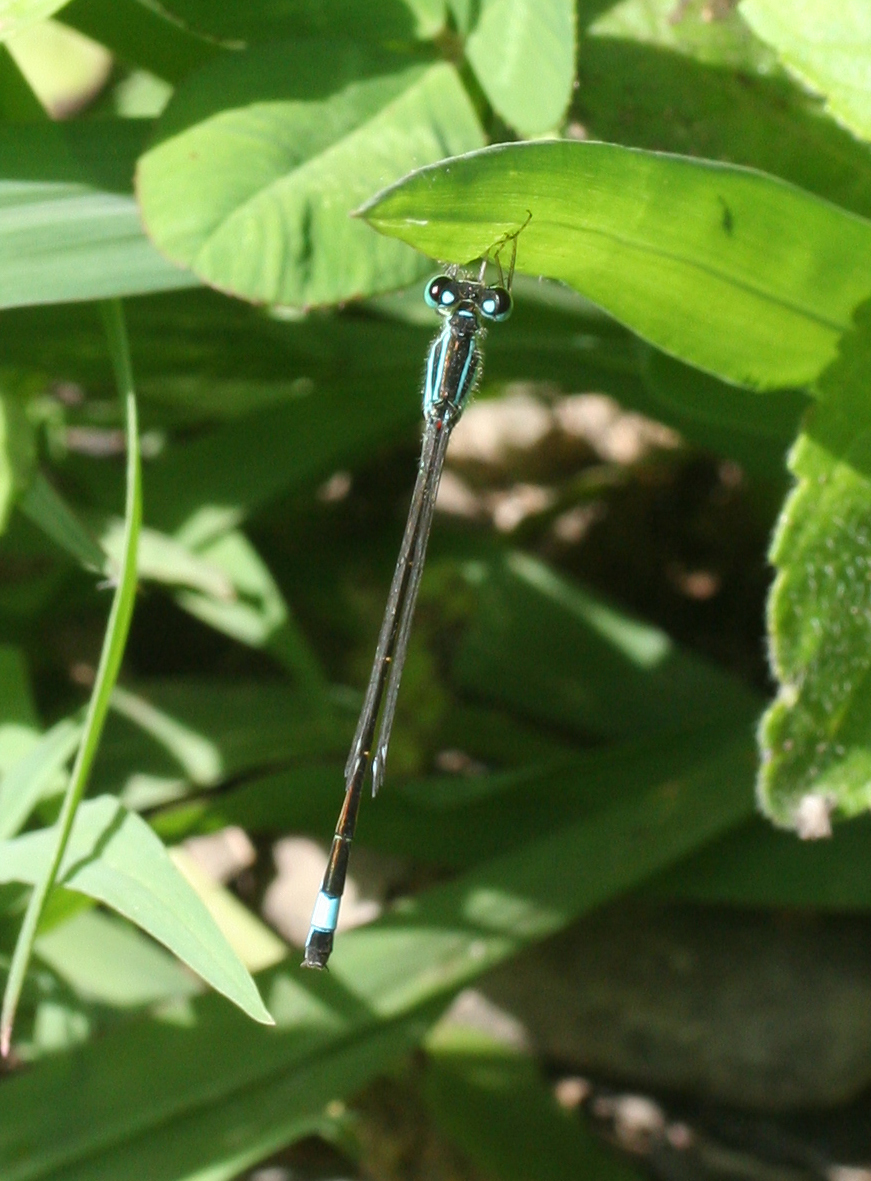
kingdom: Animalia
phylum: Arthropoda
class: Insecta
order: Odonata
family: Coenagrionidae
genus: Ischnura
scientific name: Ischnura elegans
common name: Blue-tailed damselfly
